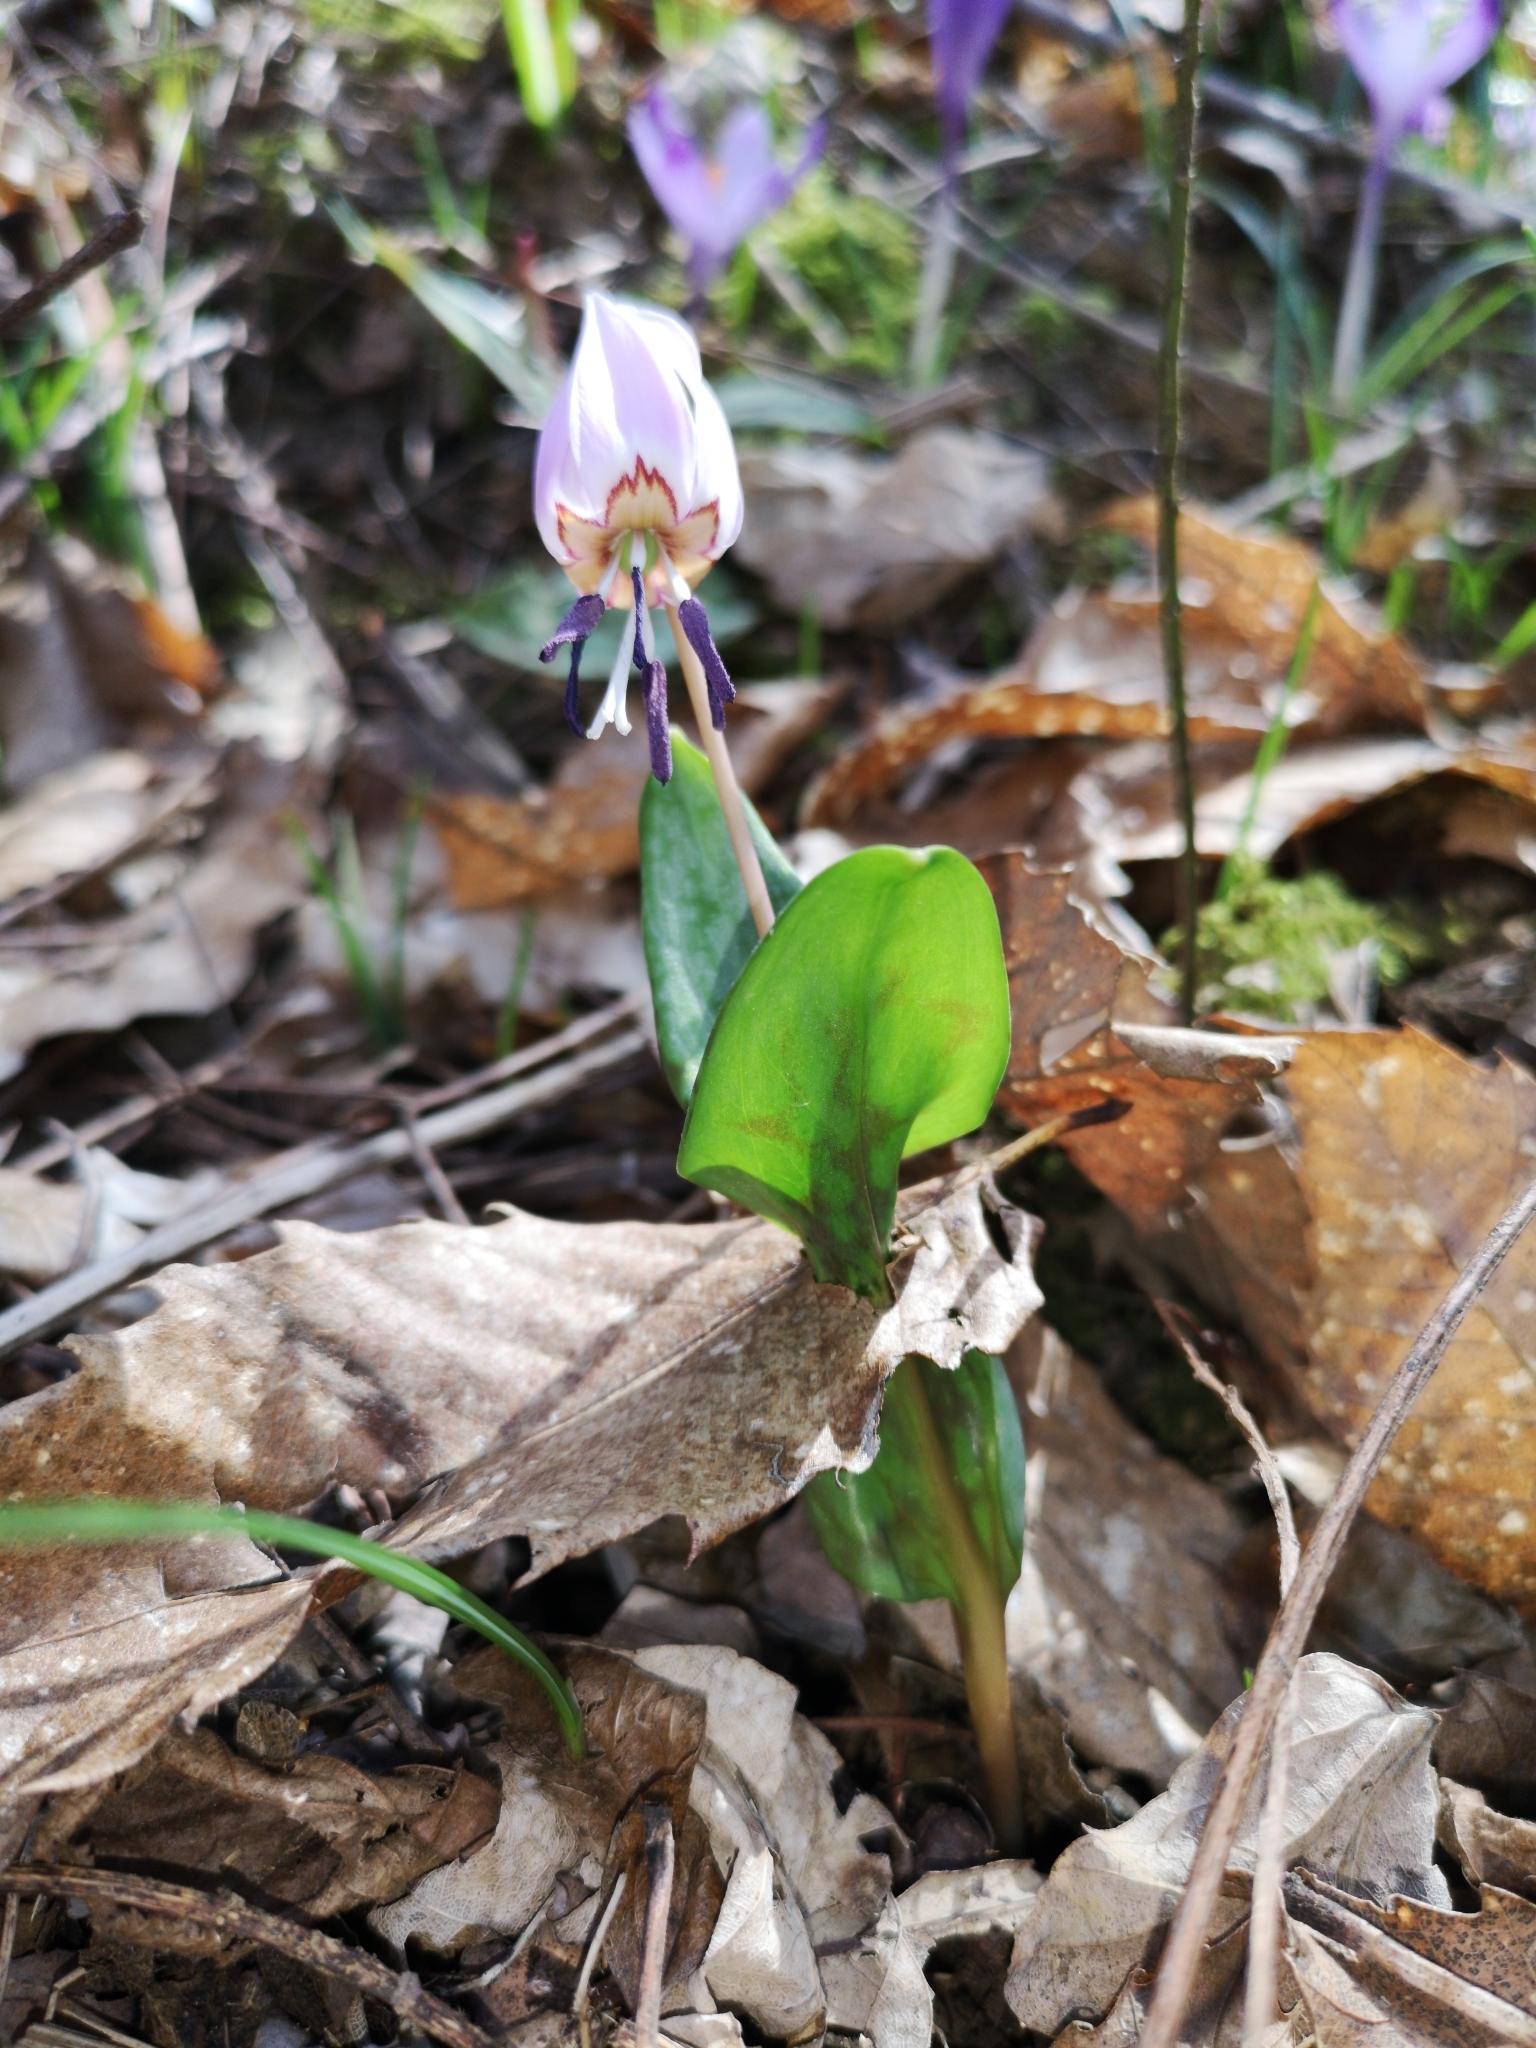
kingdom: Plantae
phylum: Tracheophyta
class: Liliopsida
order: Liliales
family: Liliaceae
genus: Erythronium
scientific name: Erythronium dens-canis
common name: Dog's-tooth-violet
